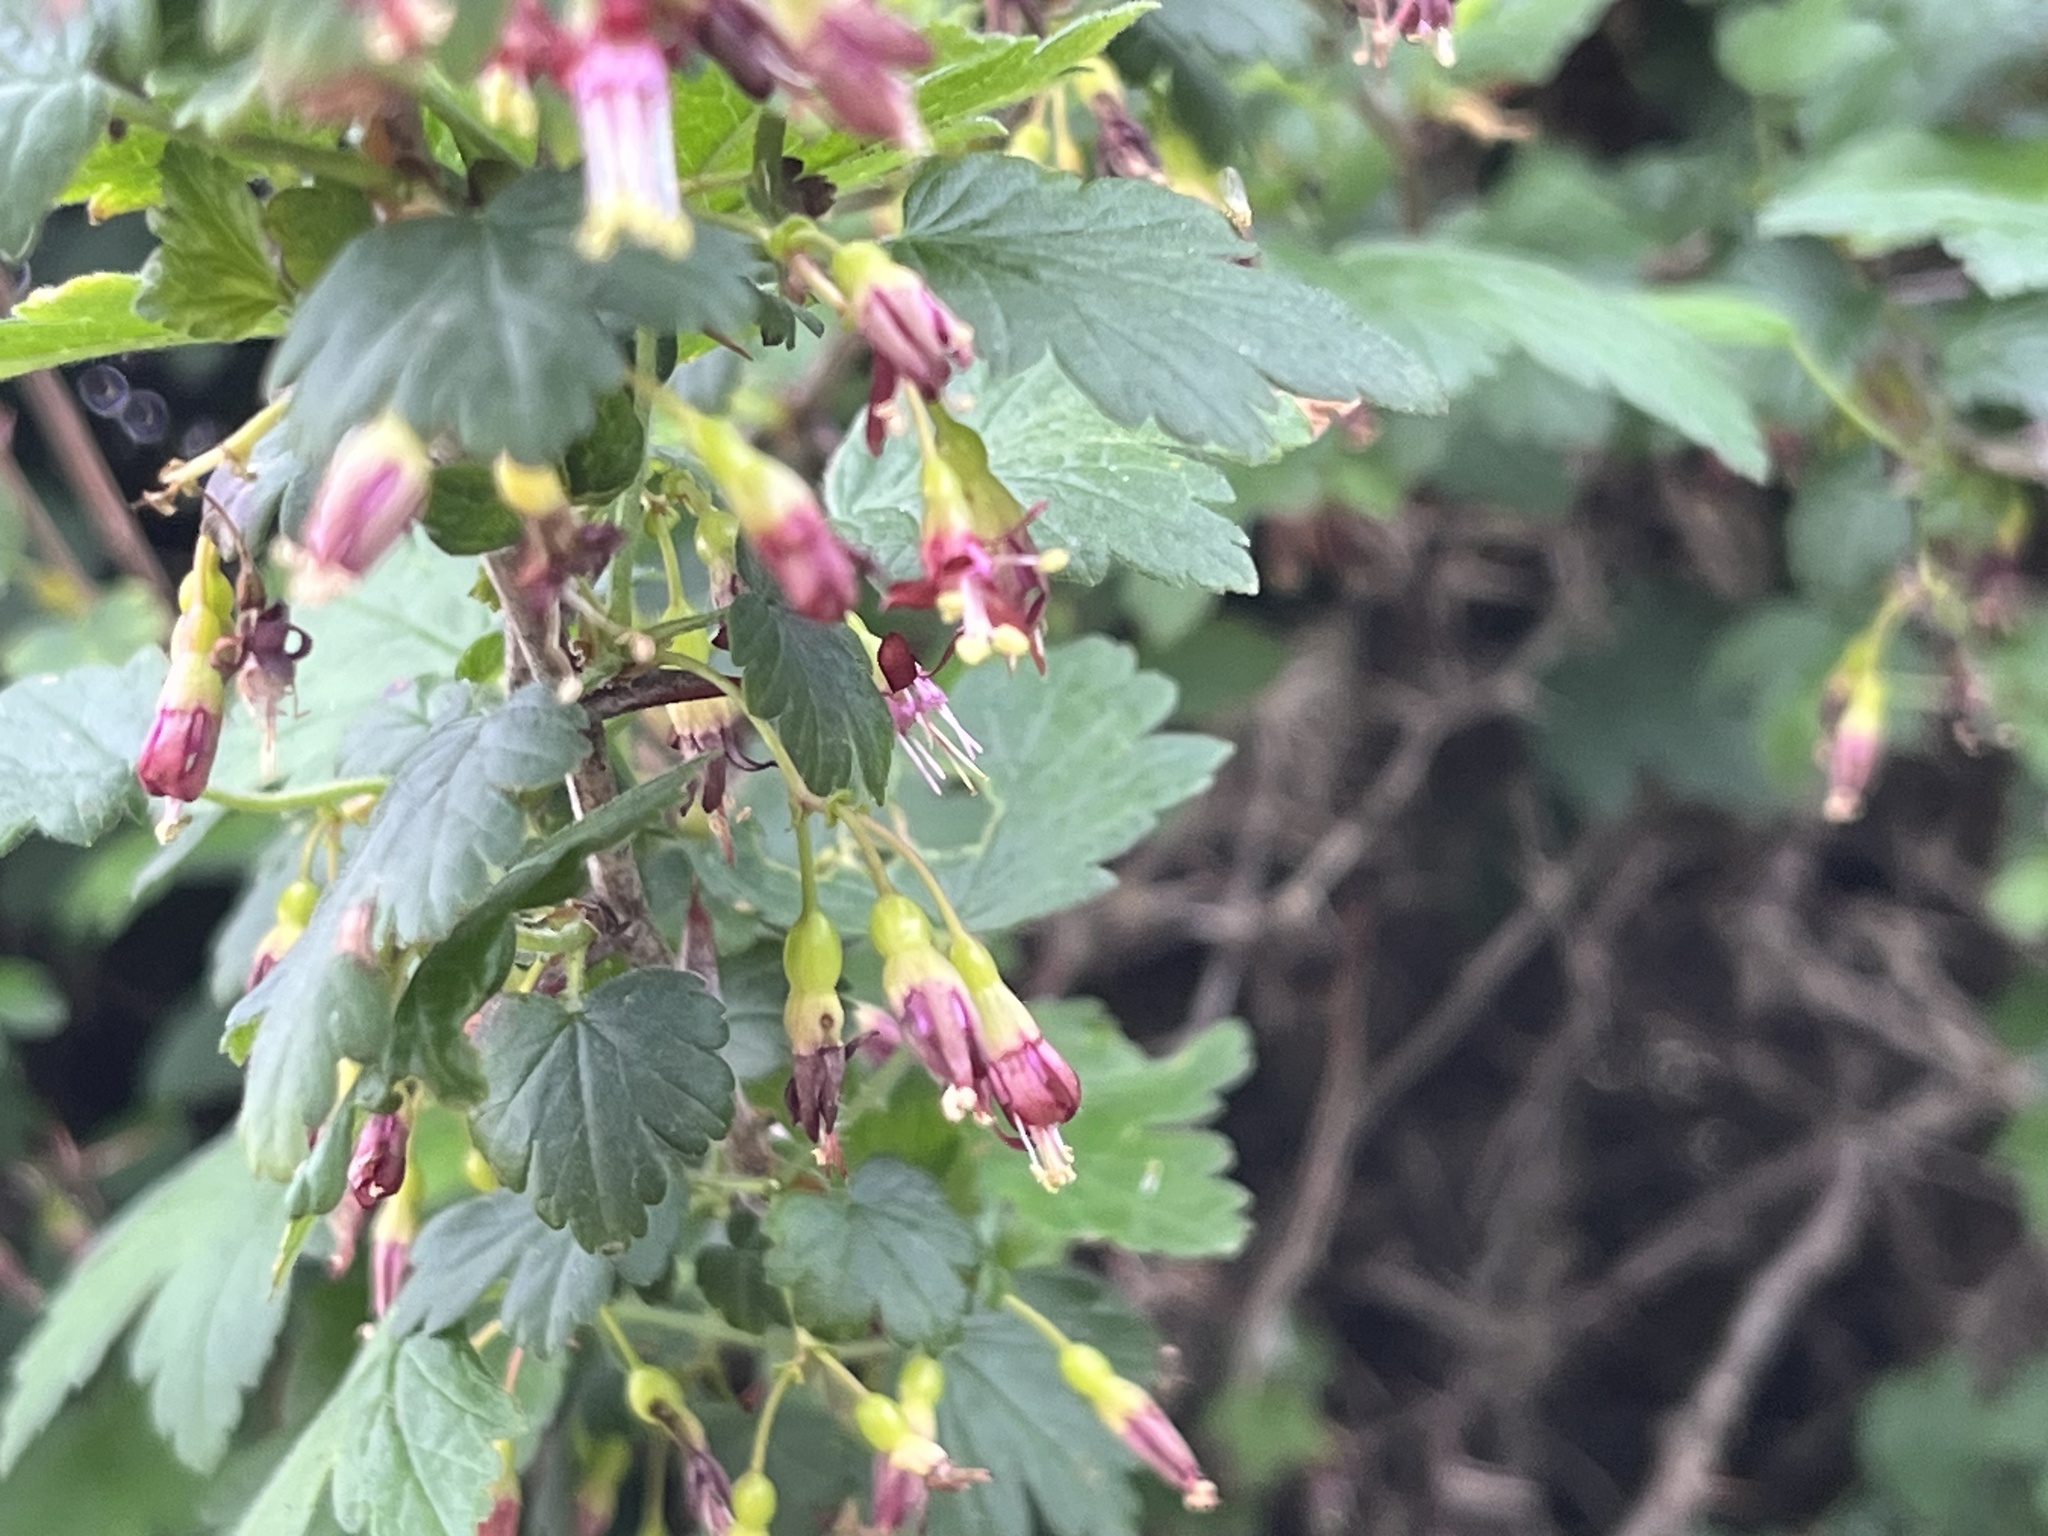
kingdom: Plantae
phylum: Tracheophyta
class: Magnoliopsida
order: Saxifragales
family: Grossulariaceae
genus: Ribes
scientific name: Ribes divaricatum
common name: Wild black gooseberry
